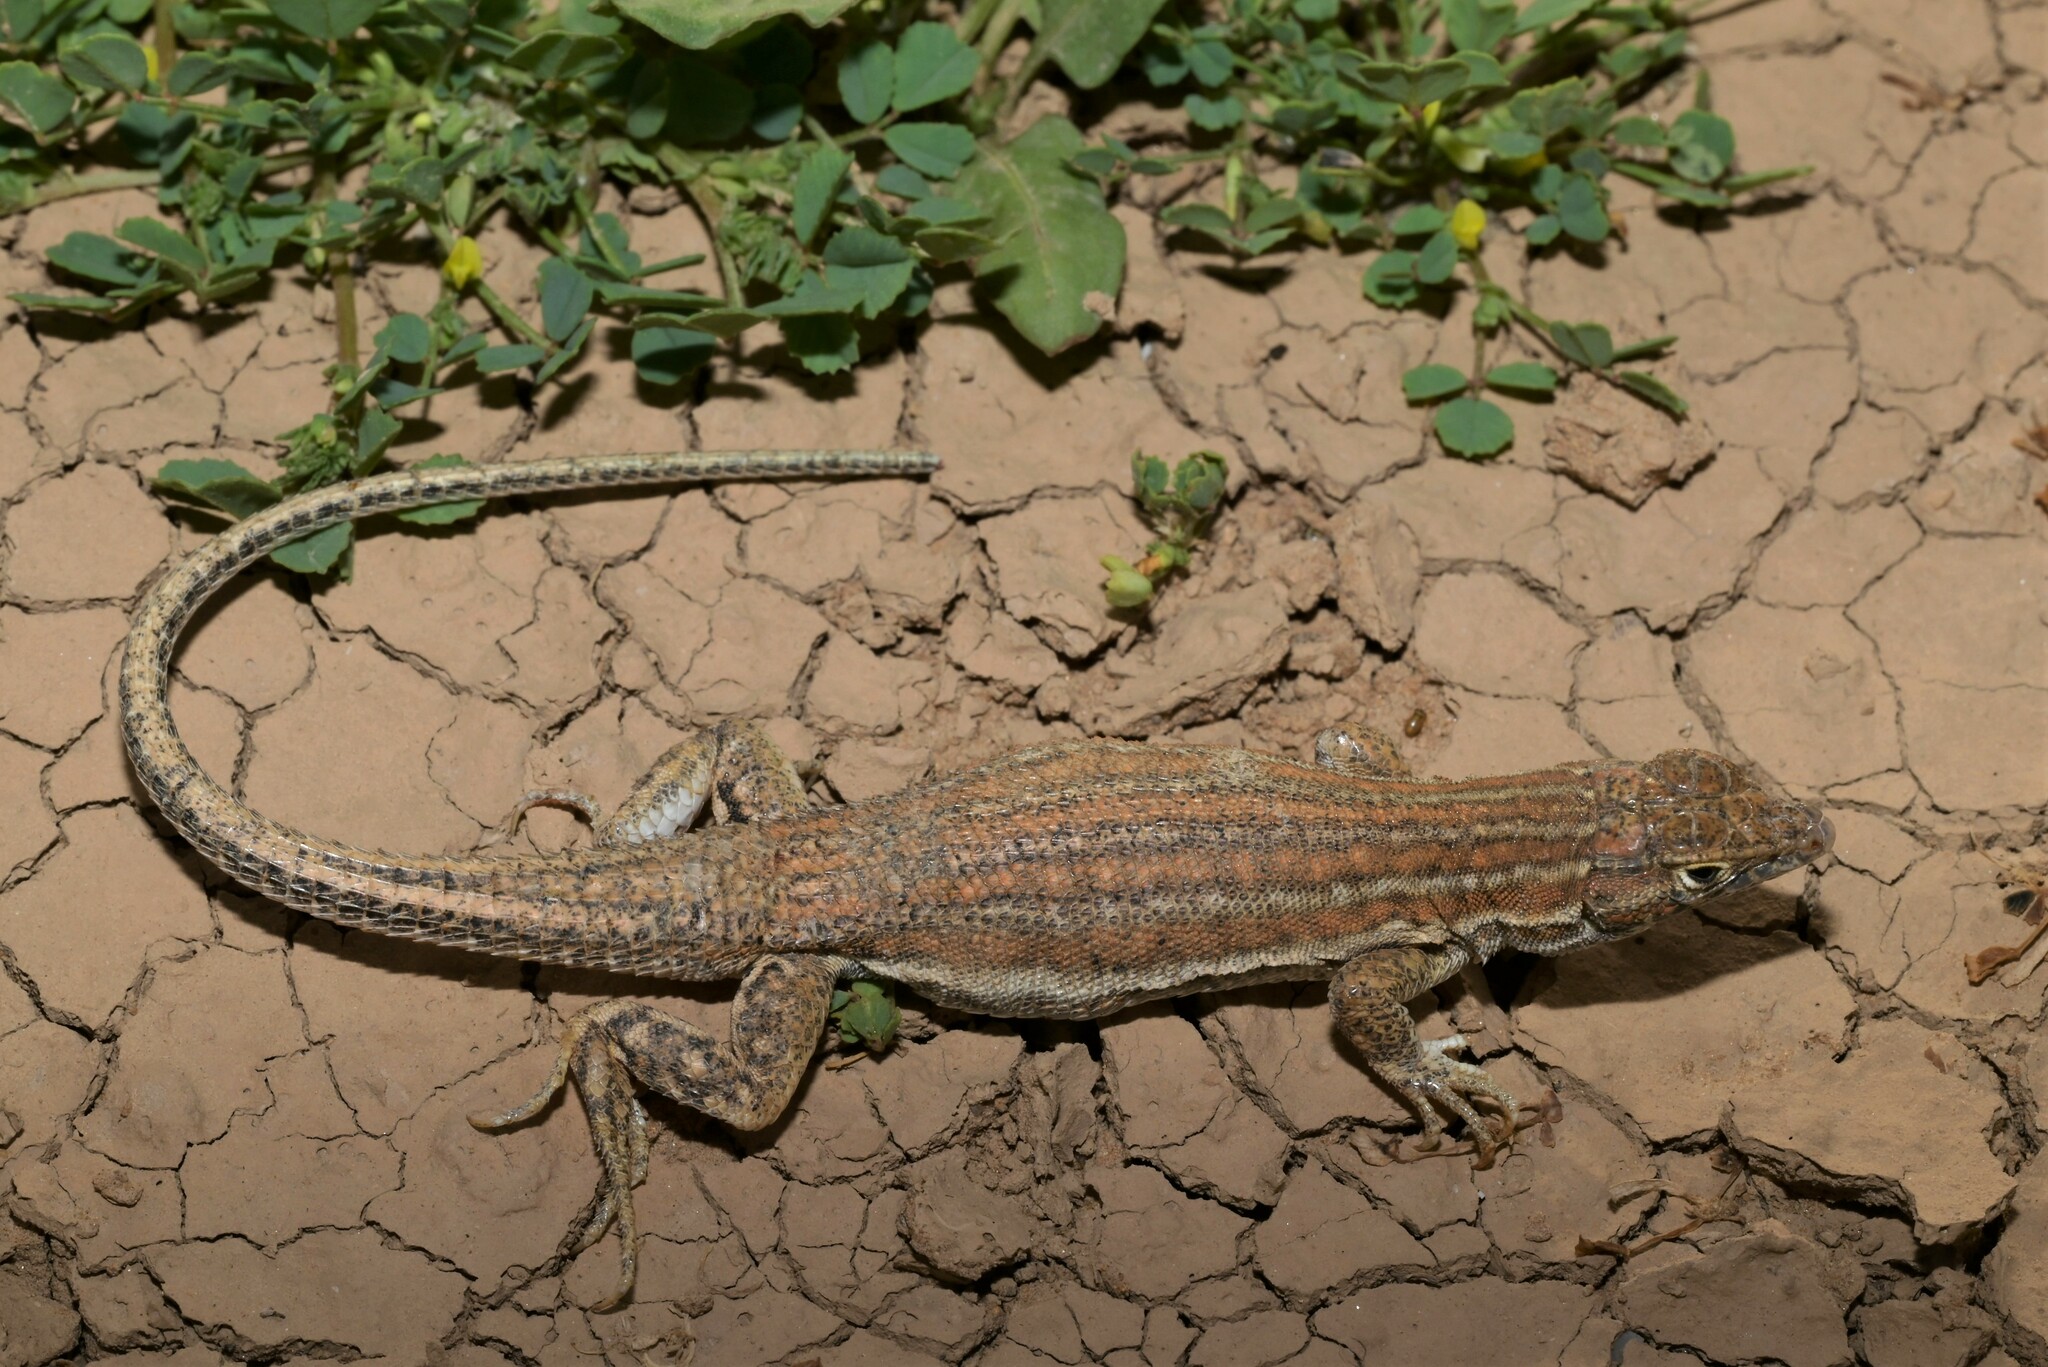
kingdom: Animalia
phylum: Chordata
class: Squamata
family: Lacertidae
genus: Acanthodactylus
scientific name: Acanthodactylus opheodurus
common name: Arnold's fringe-fingered lizard
